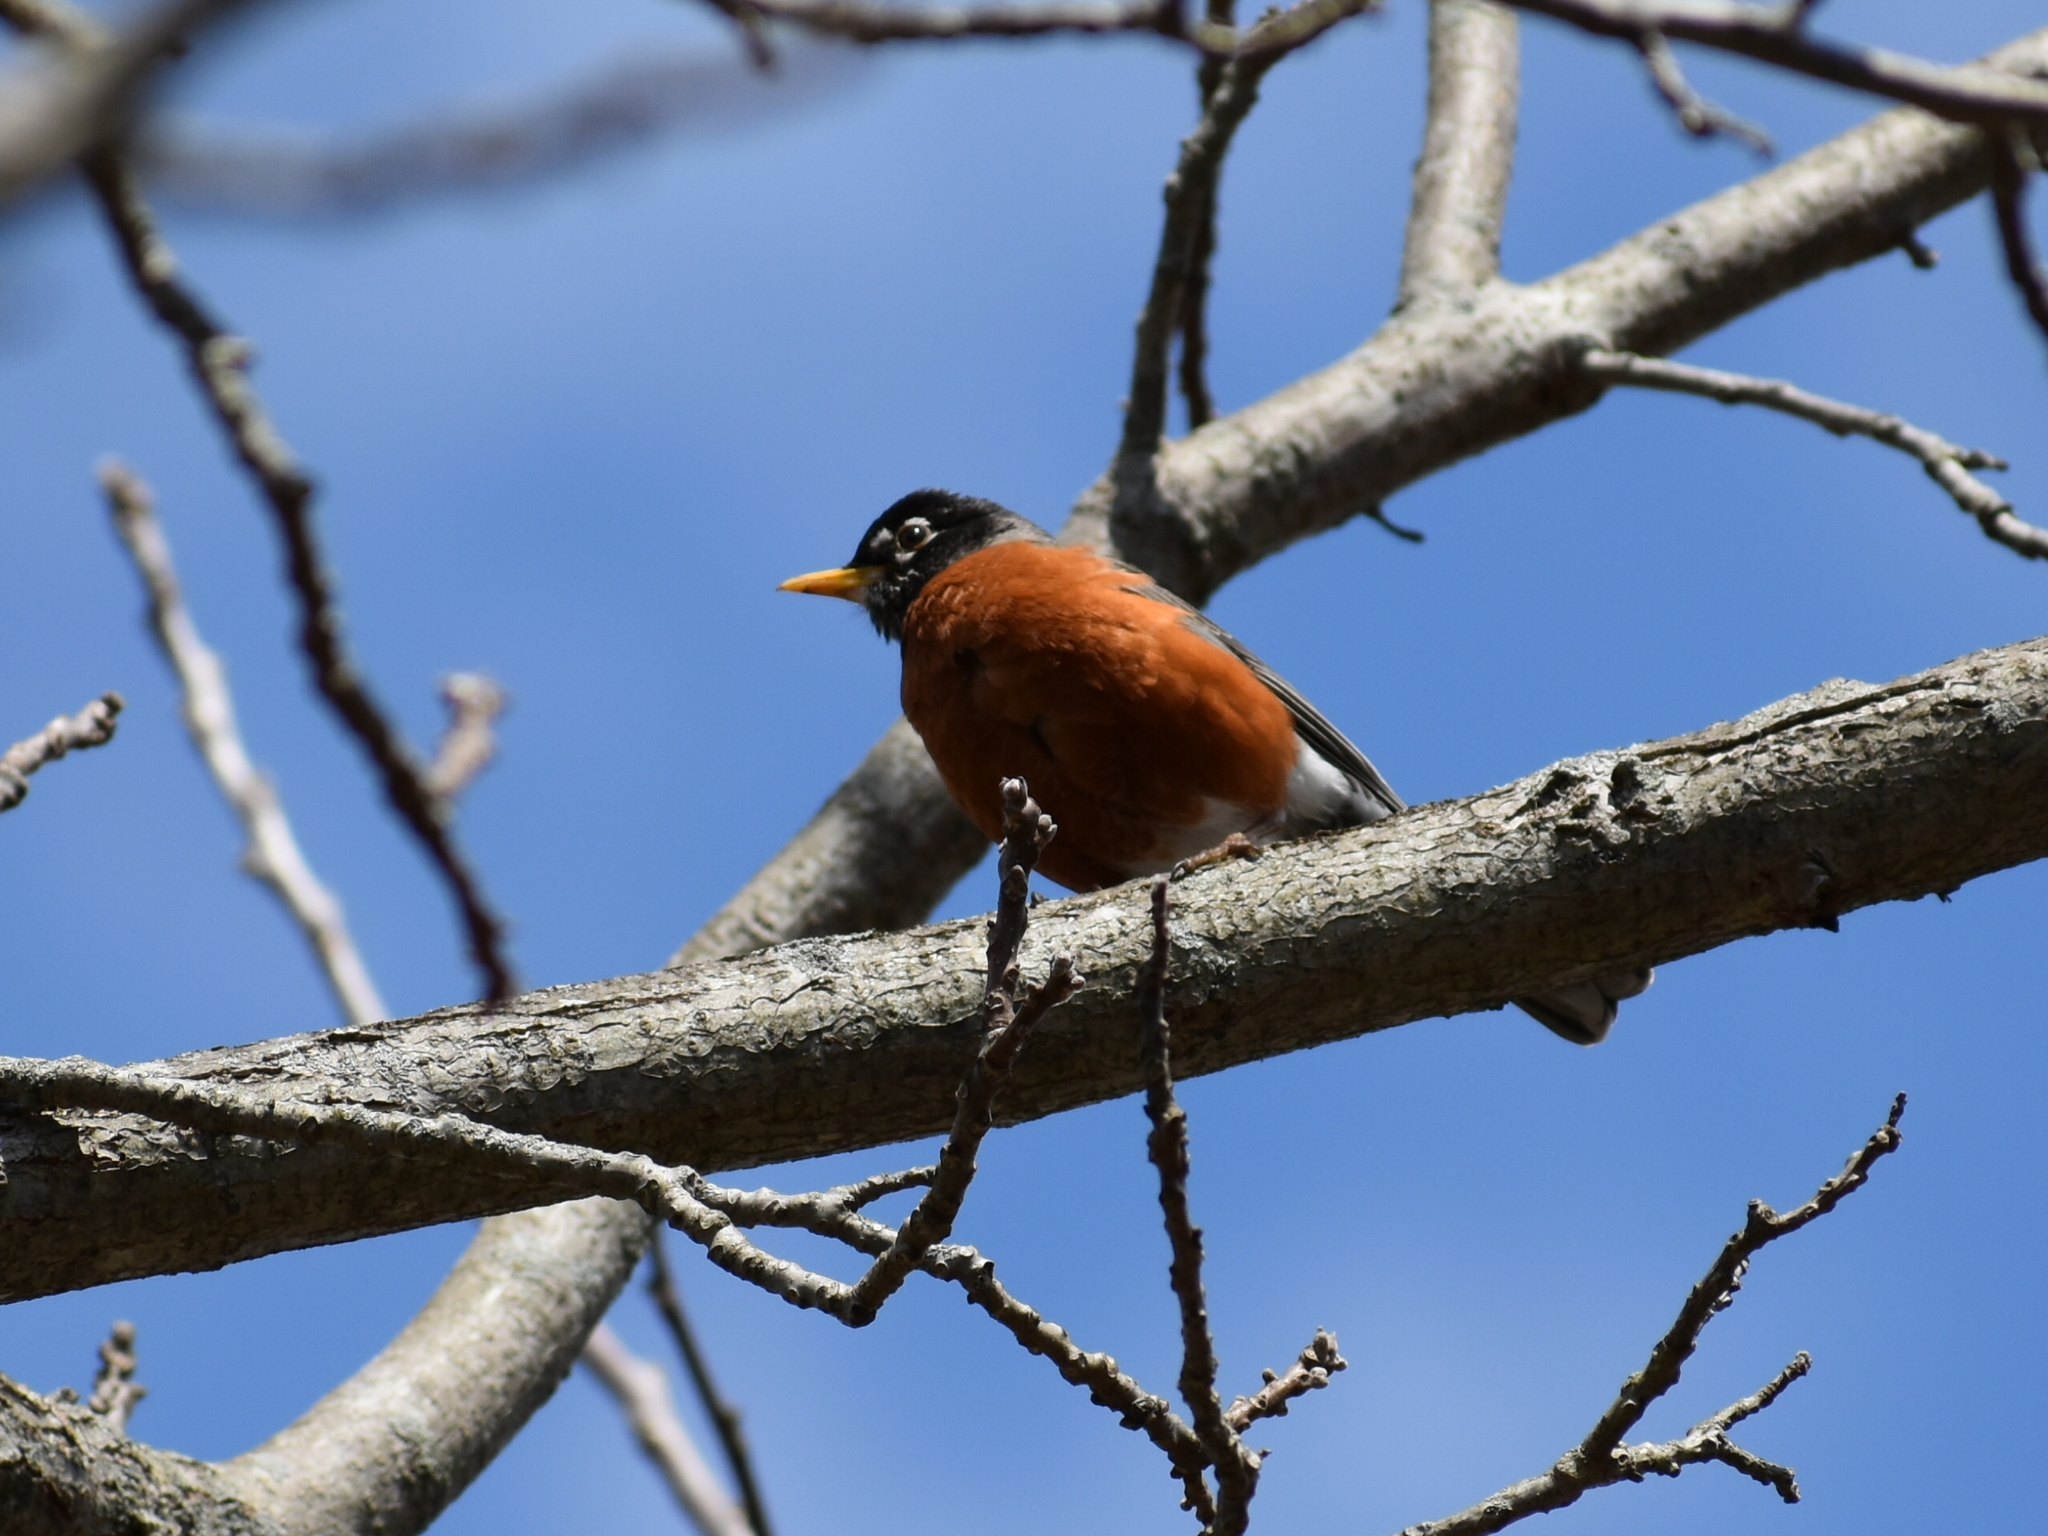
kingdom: Animalia
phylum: Chordata
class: Aves
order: Passeriformes
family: Turdidae
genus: Turdus
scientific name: Turdus migratorius
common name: American robin
